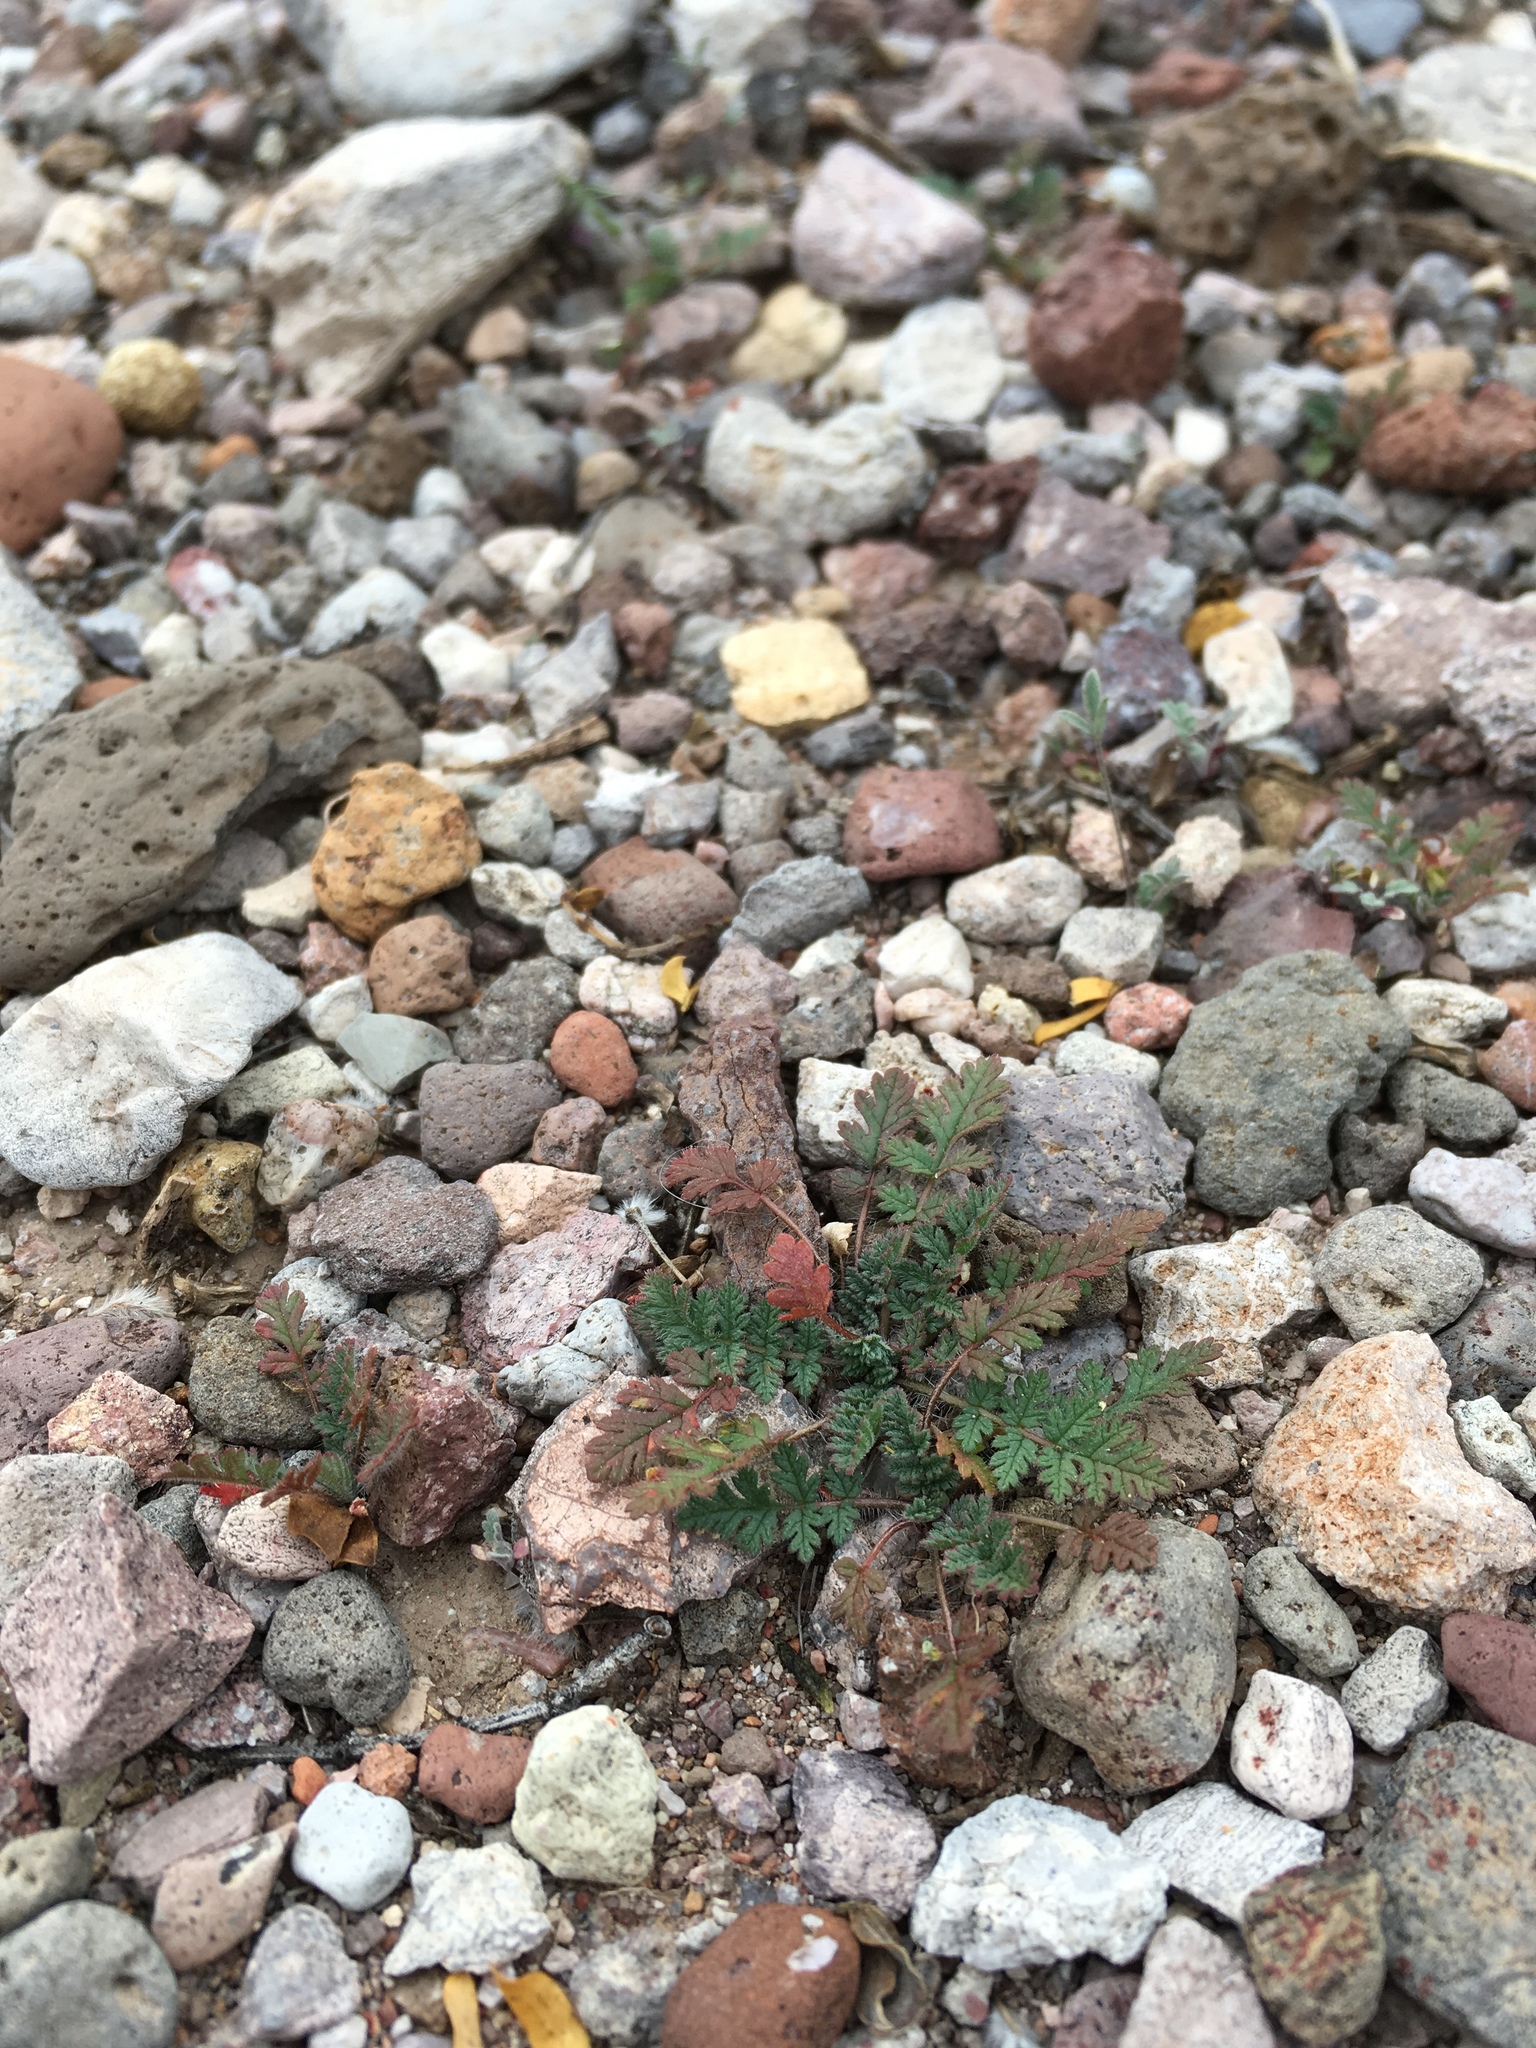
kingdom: Plantae
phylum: Tracheophyta
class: Magnoliopsida
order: Geraniales
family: Geraniaceae
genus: Erodium
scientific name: Erodium cicutarium
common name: Common stork's-bill
